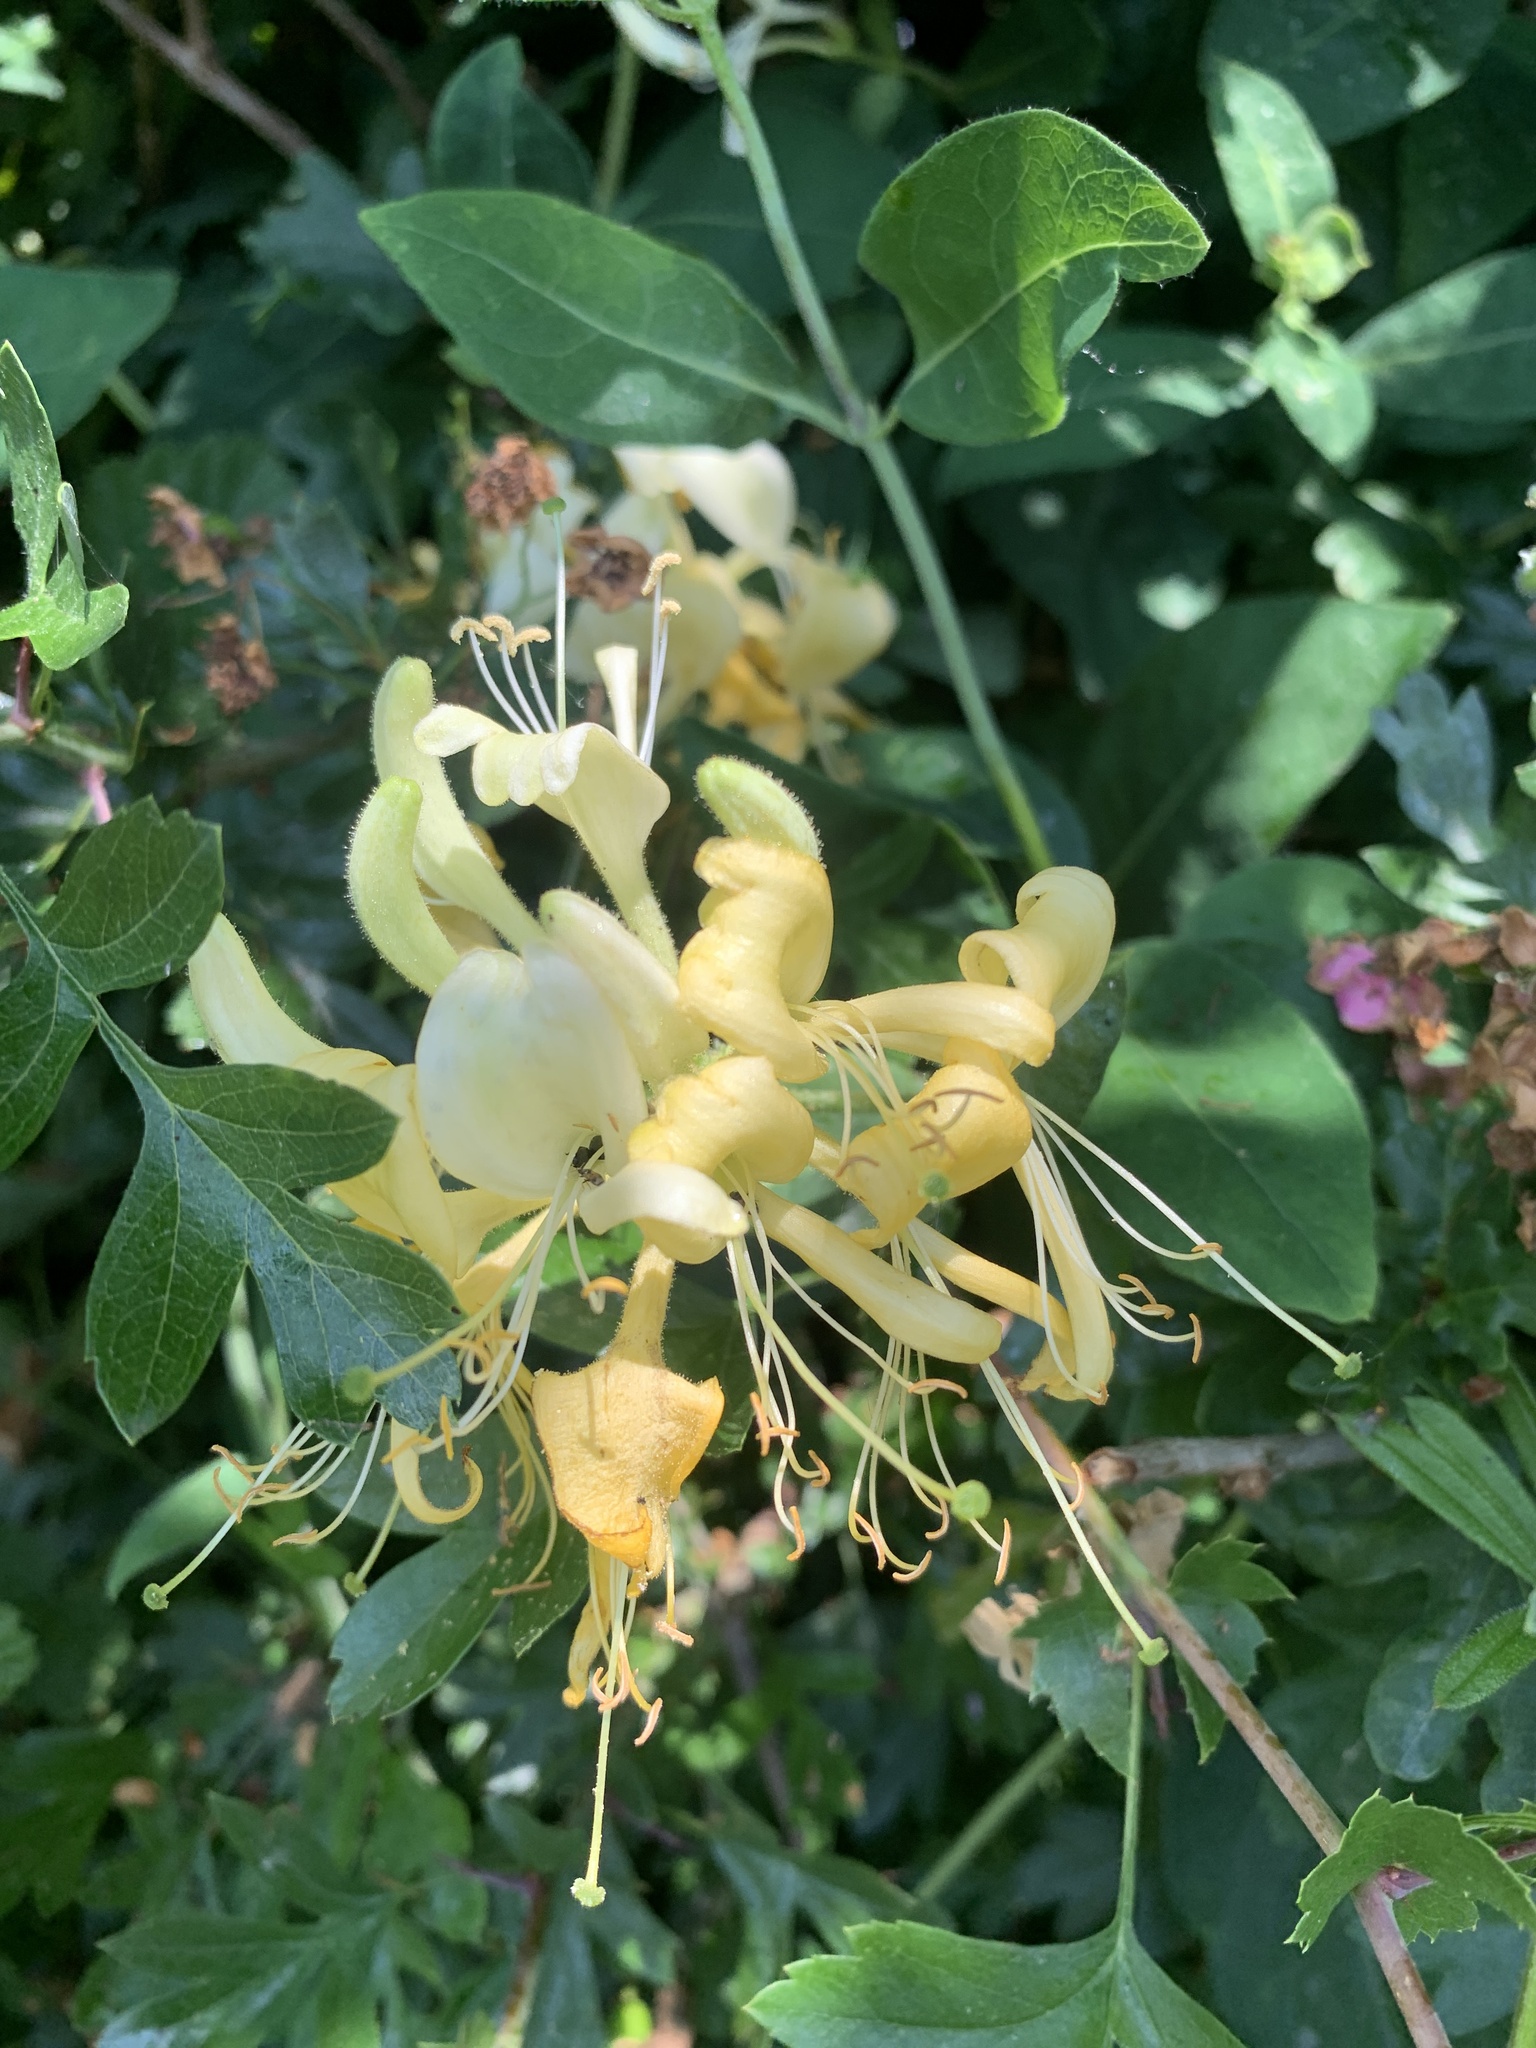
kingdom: Plantae
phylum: Tracheophyta
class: Magnoliopsida
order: Dipsacales
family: Caprifoliaceae
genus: Lonicera
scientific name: Lonicera periclymenum
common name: European honeysuckle
